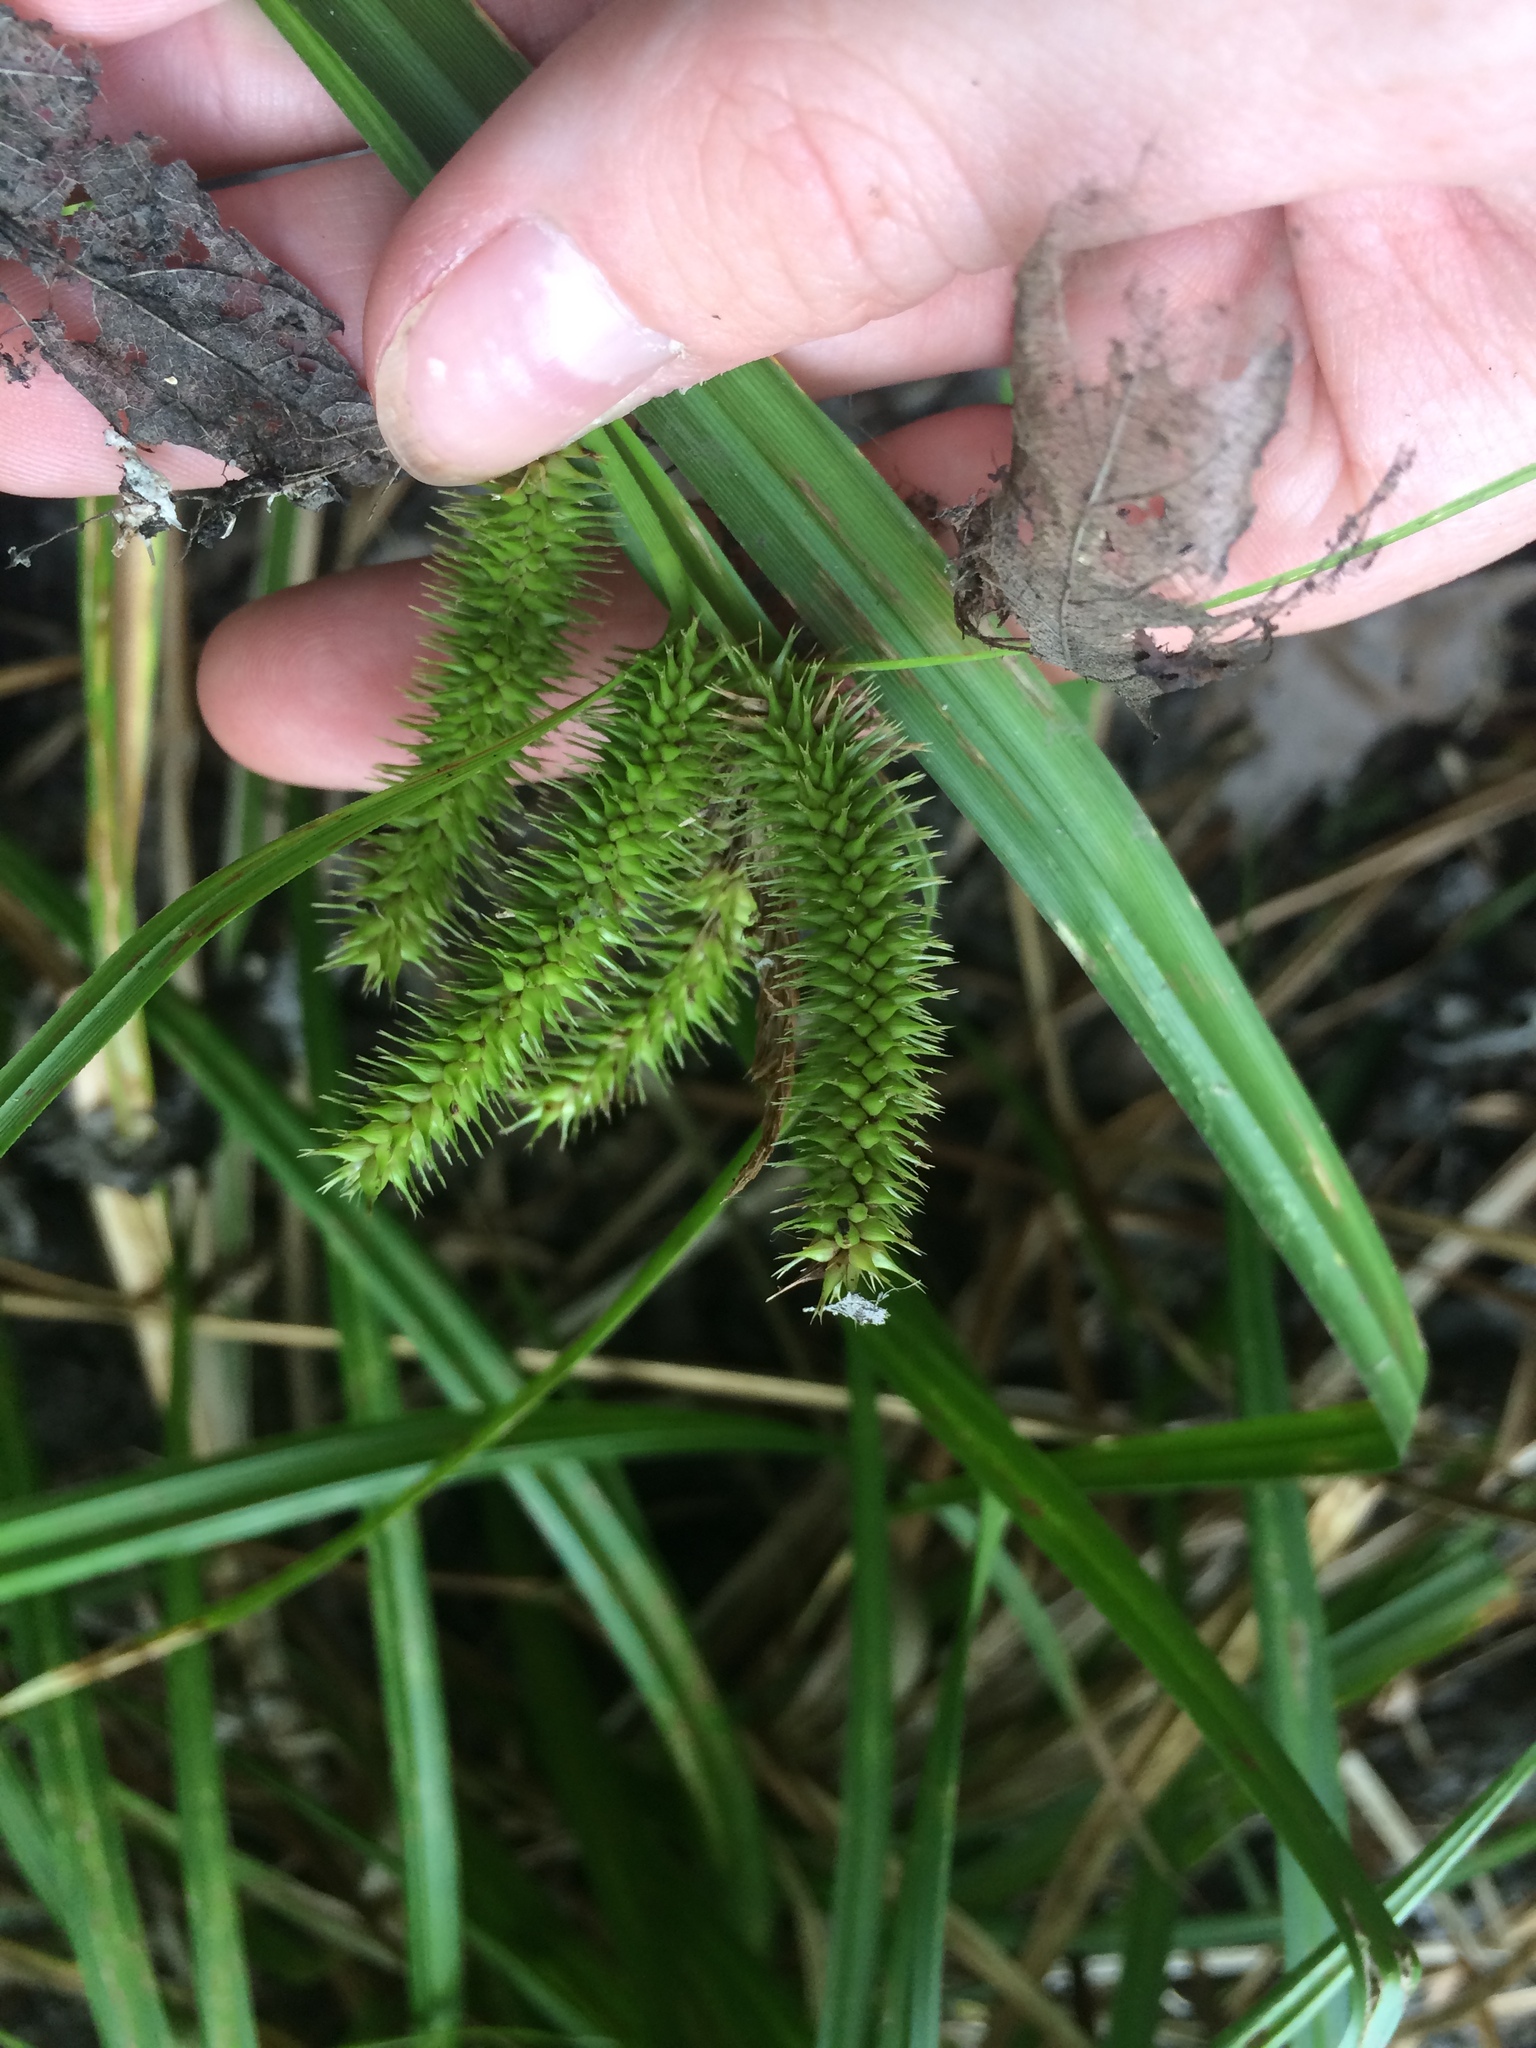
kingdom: Plantae
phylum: Tracheophyta
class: Liliopsida
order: Poales
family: Cyperaceae
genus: Carex
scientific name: Carex comosa
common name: Bristly sedge
